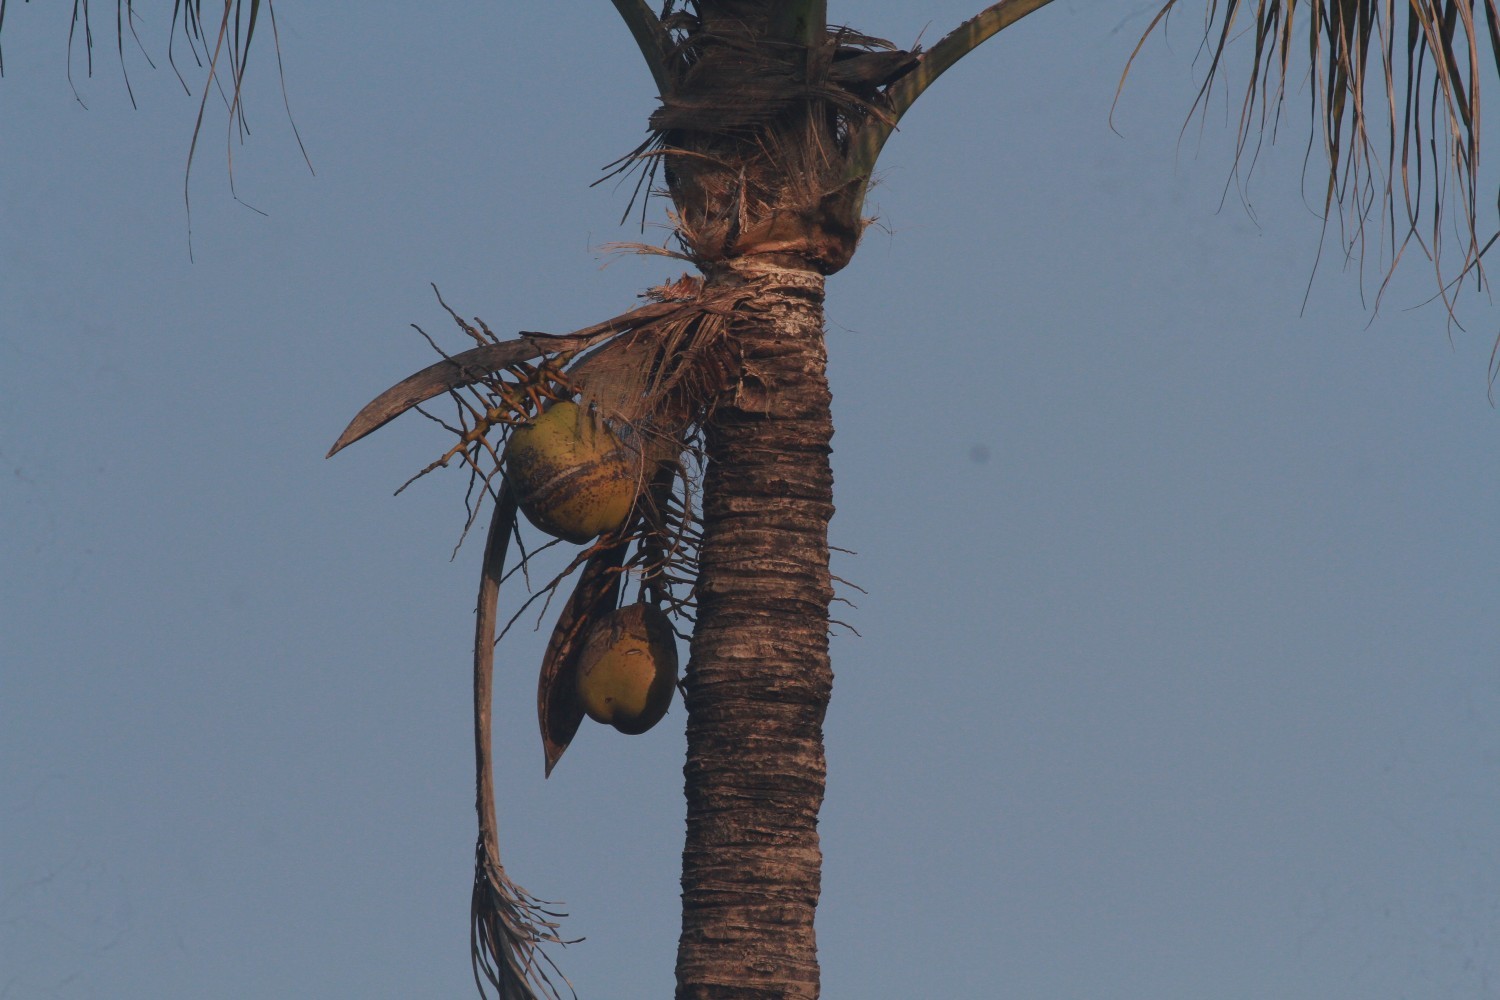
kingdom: Plantae
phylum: Tracheophyta
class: Liliopsida
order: Arecales
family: Arecaceae
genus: Cocos
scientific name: Cocos nucifera
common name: Coconut palm
